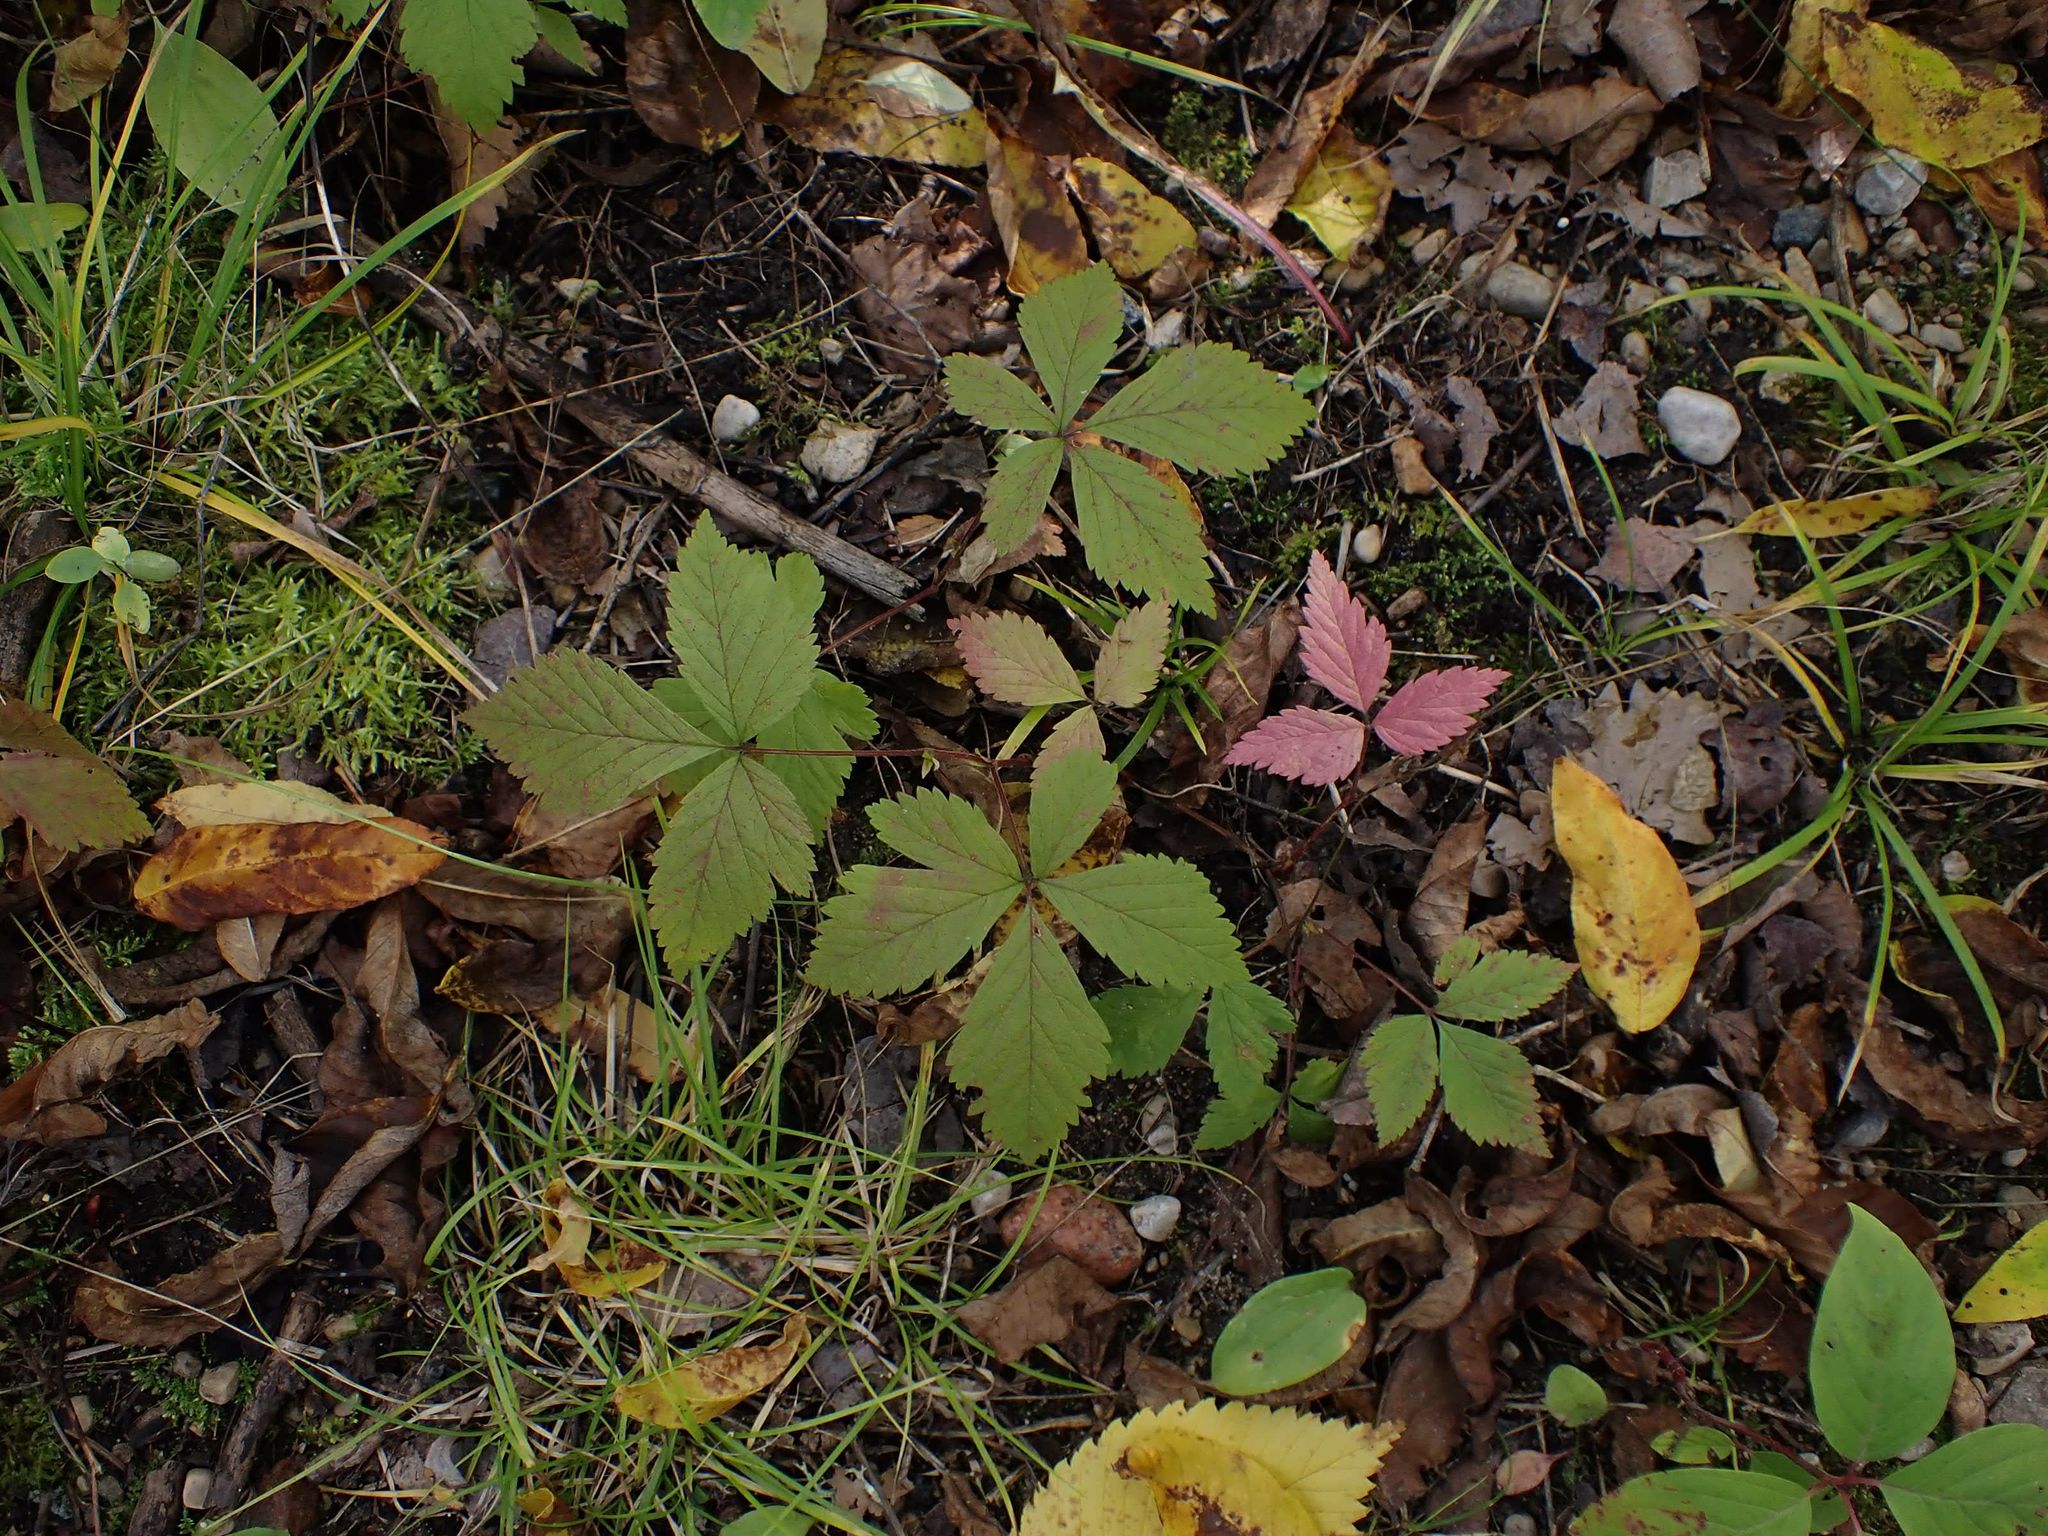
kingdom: Plantae
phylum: Tracheophyta
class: Magnoliopsida
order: Rosales
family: Rosaceae
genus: Rubus
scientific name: Rubus pubescens
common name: Dwarf raspberry
